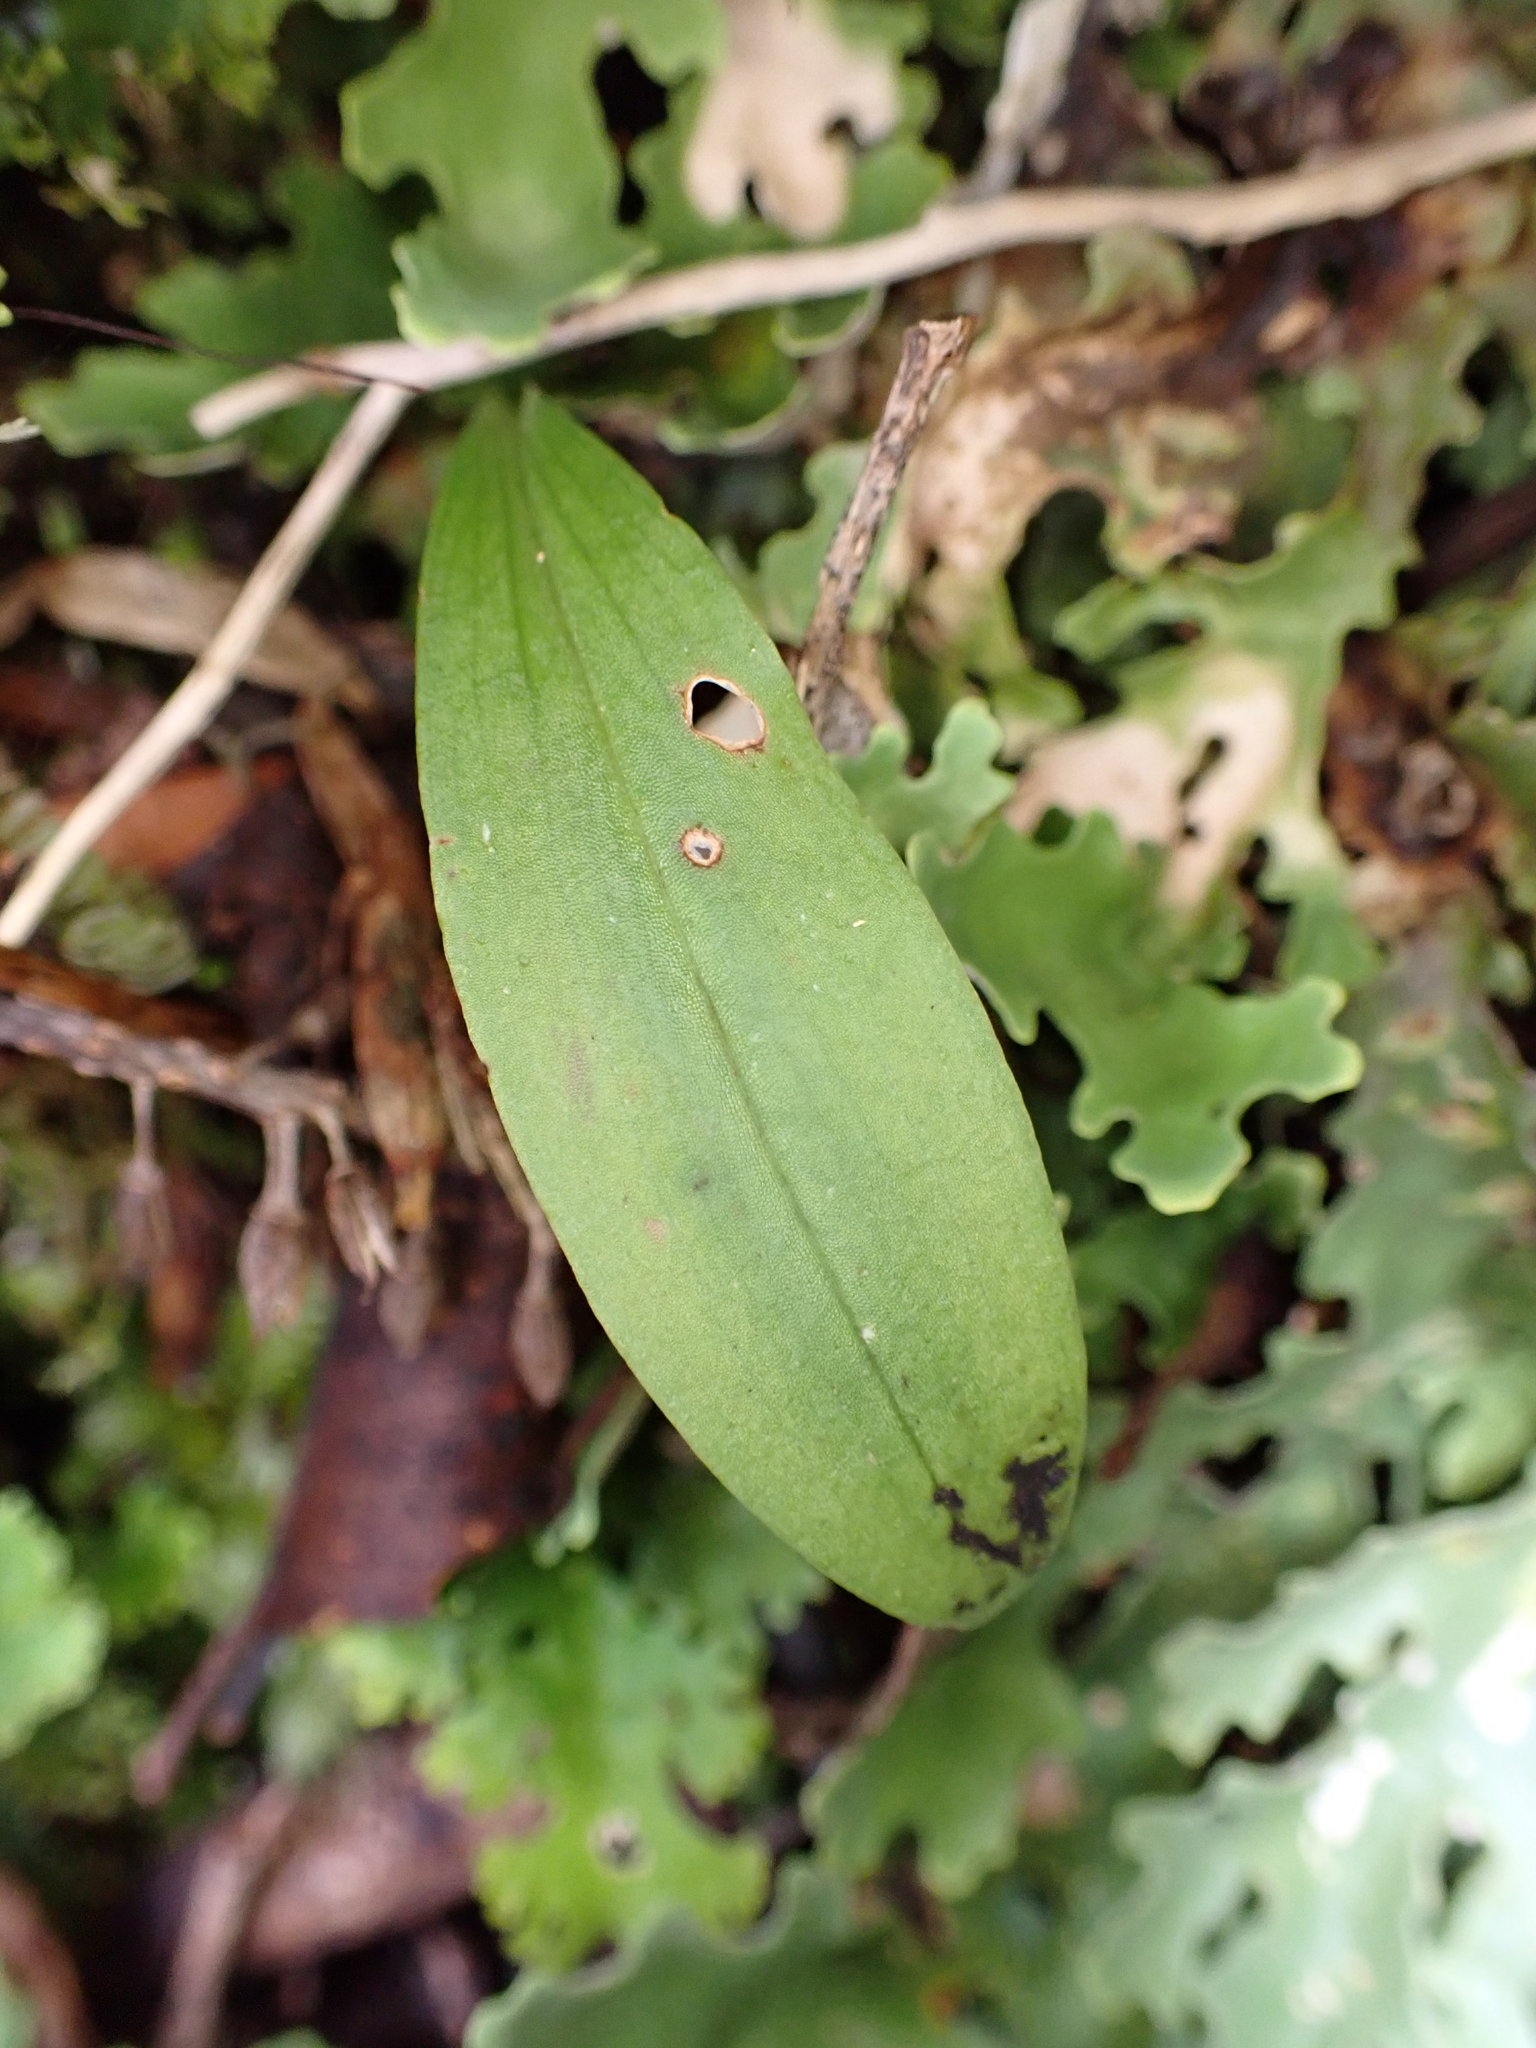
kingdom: Plantae
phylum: Tracheophyta
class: Liliopsida
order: Asparagales
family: Orchidaceae
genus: Chiloglottis
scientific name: Chiloglottis cornuta
